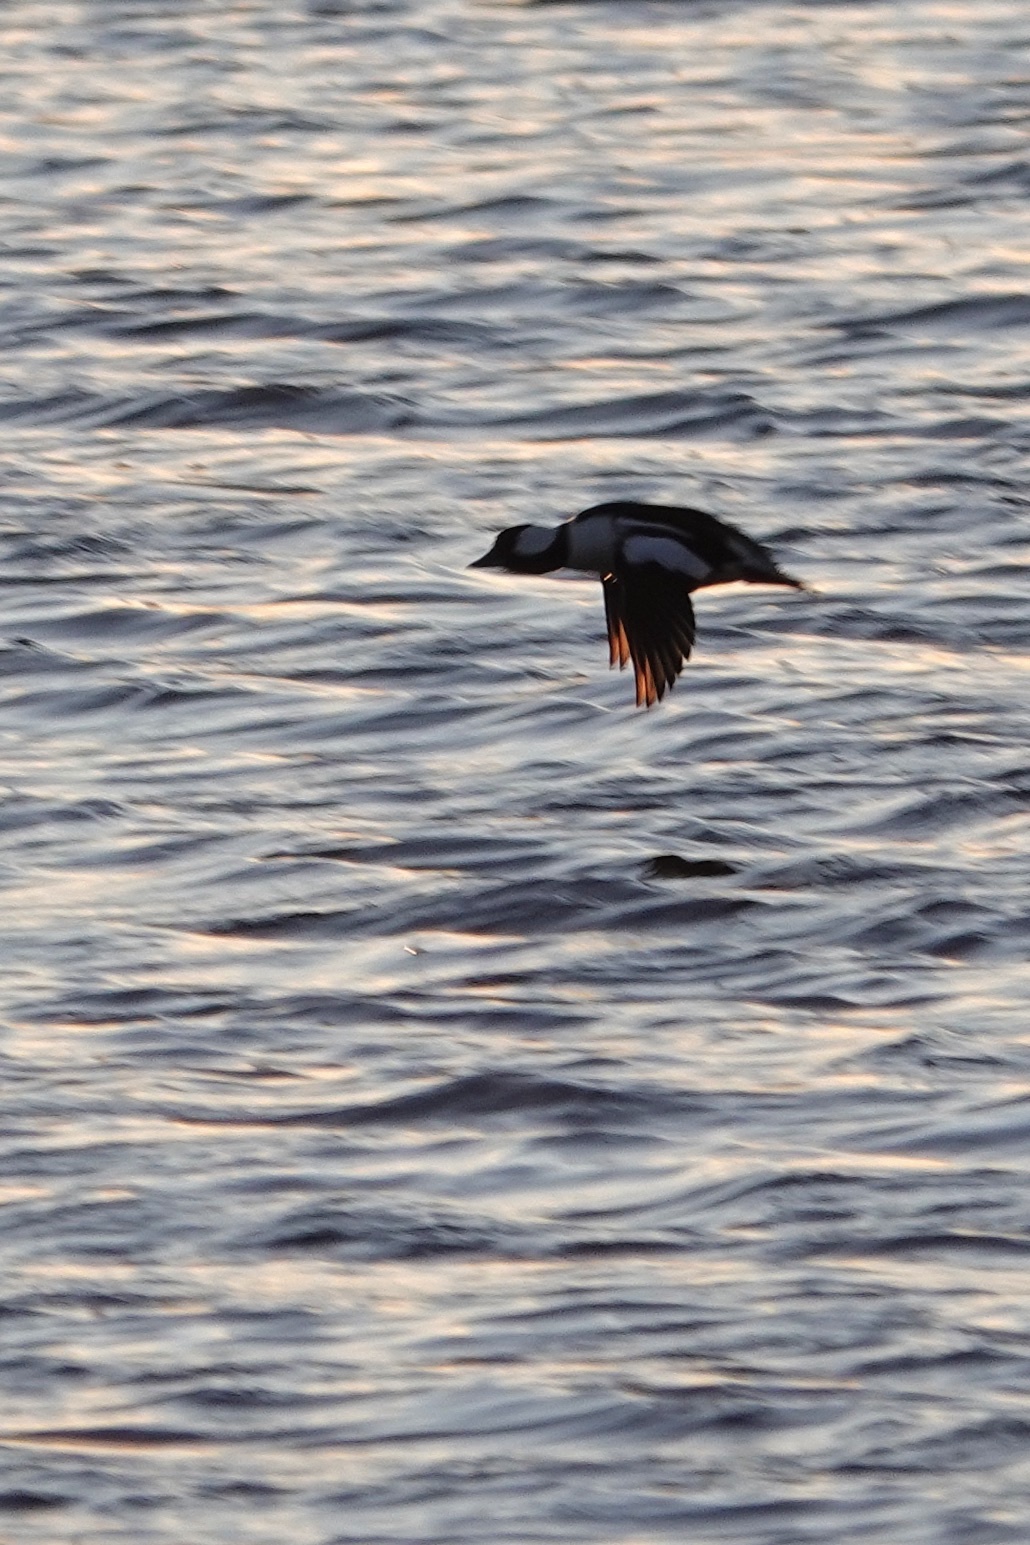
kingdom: Animalia
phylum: Chordata
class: Aves
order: Anseriformes
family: Anatidae
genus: Bucephala
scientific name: Bucephala albeola
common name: Bufflehead
